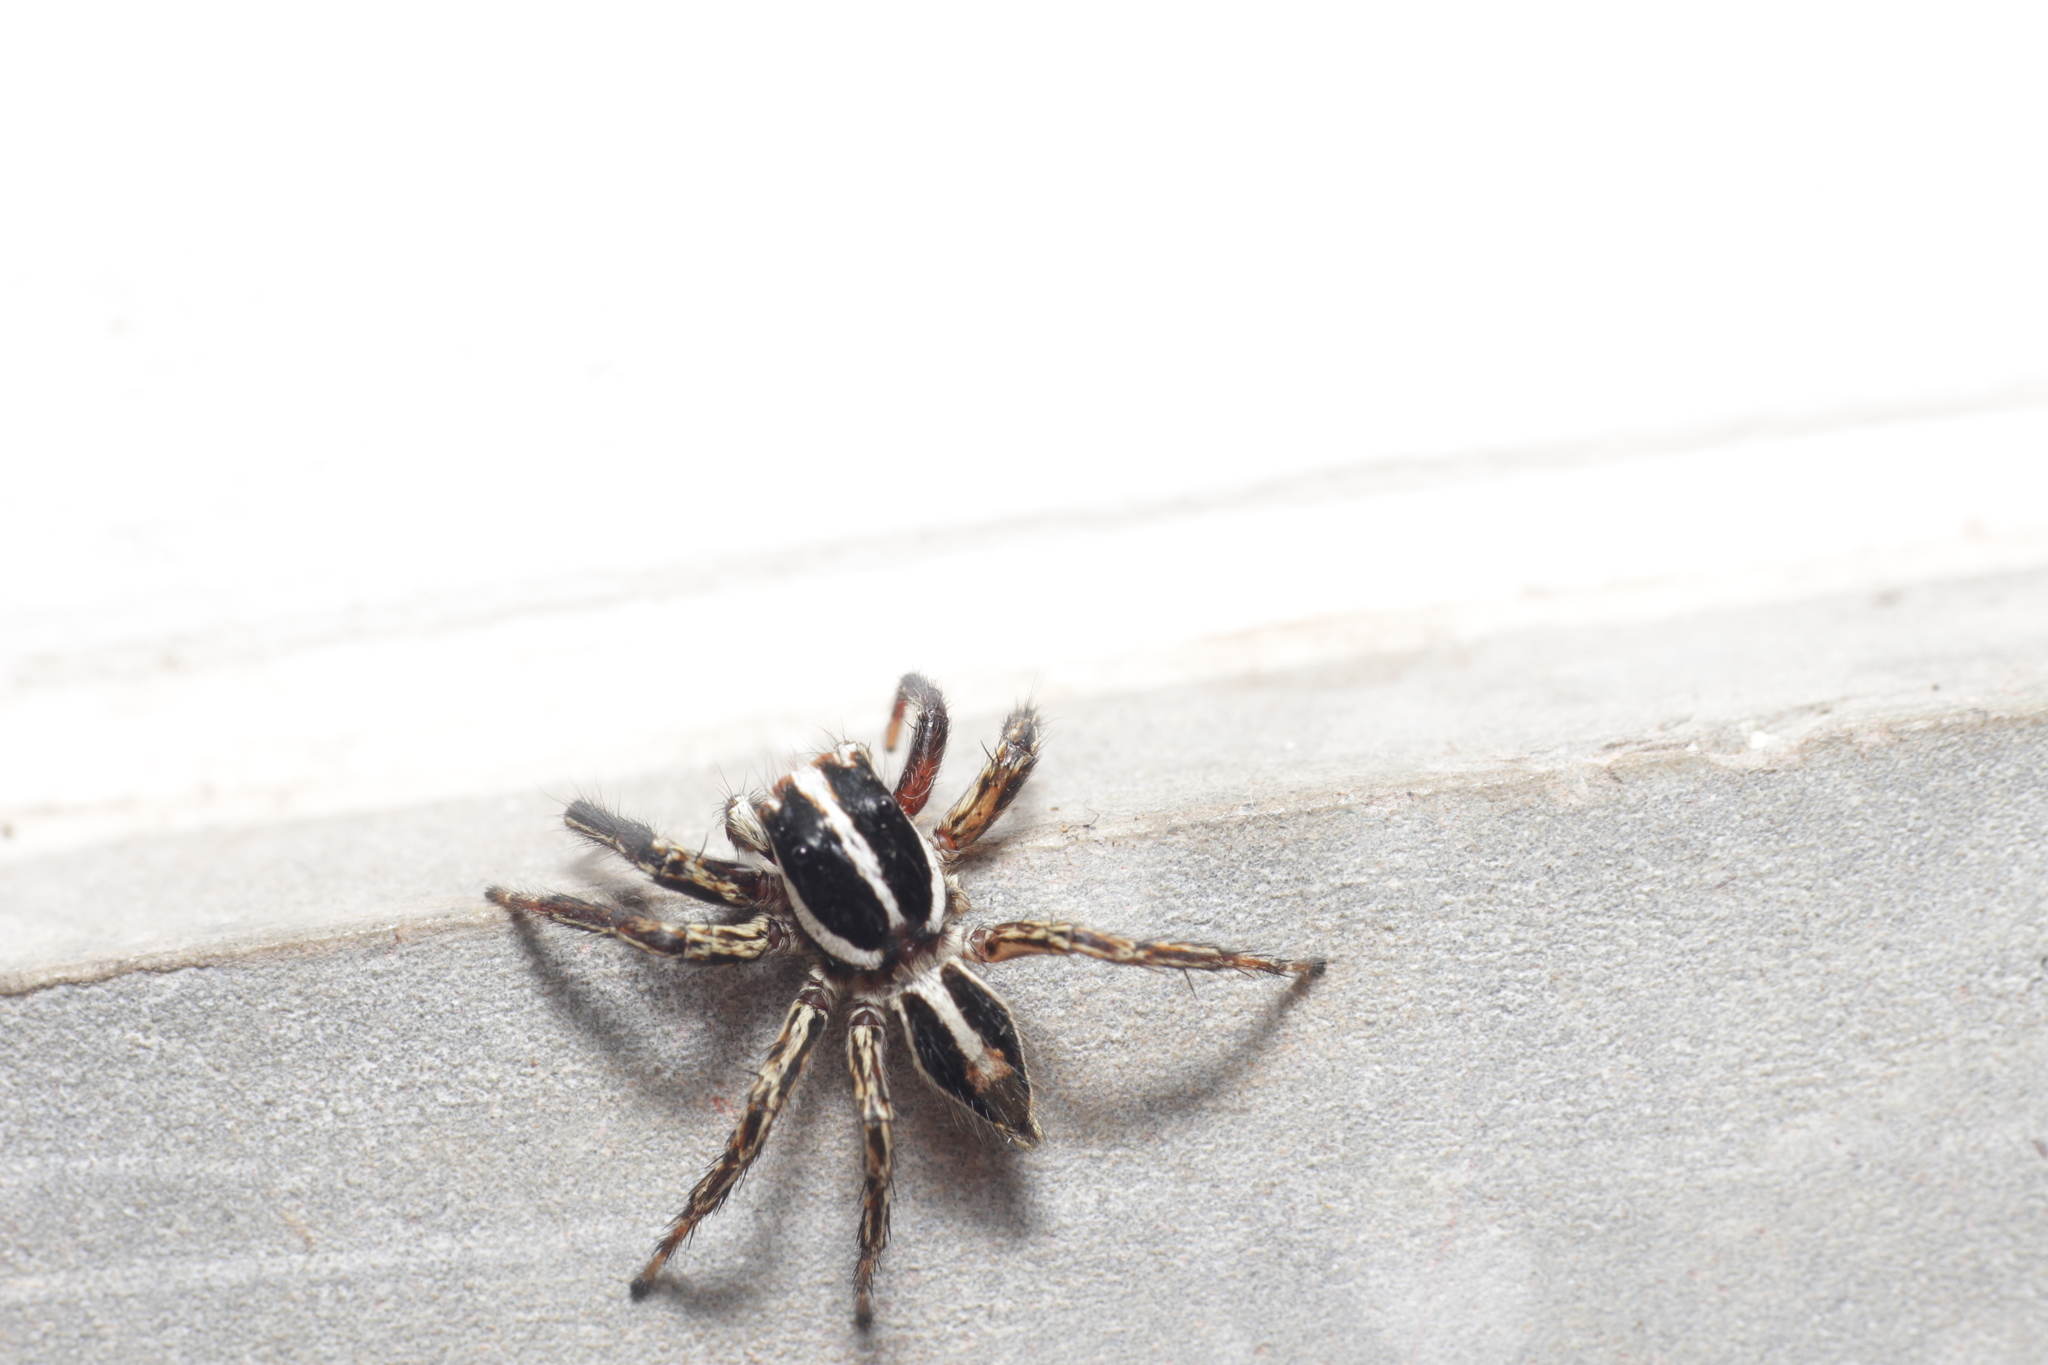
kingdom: Animalia
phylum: Arthropoda
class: Arachnida
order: Araneae
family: Salticidae
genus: Plexippus
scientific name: Plexippus paykulli
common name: Pantropical jumper
